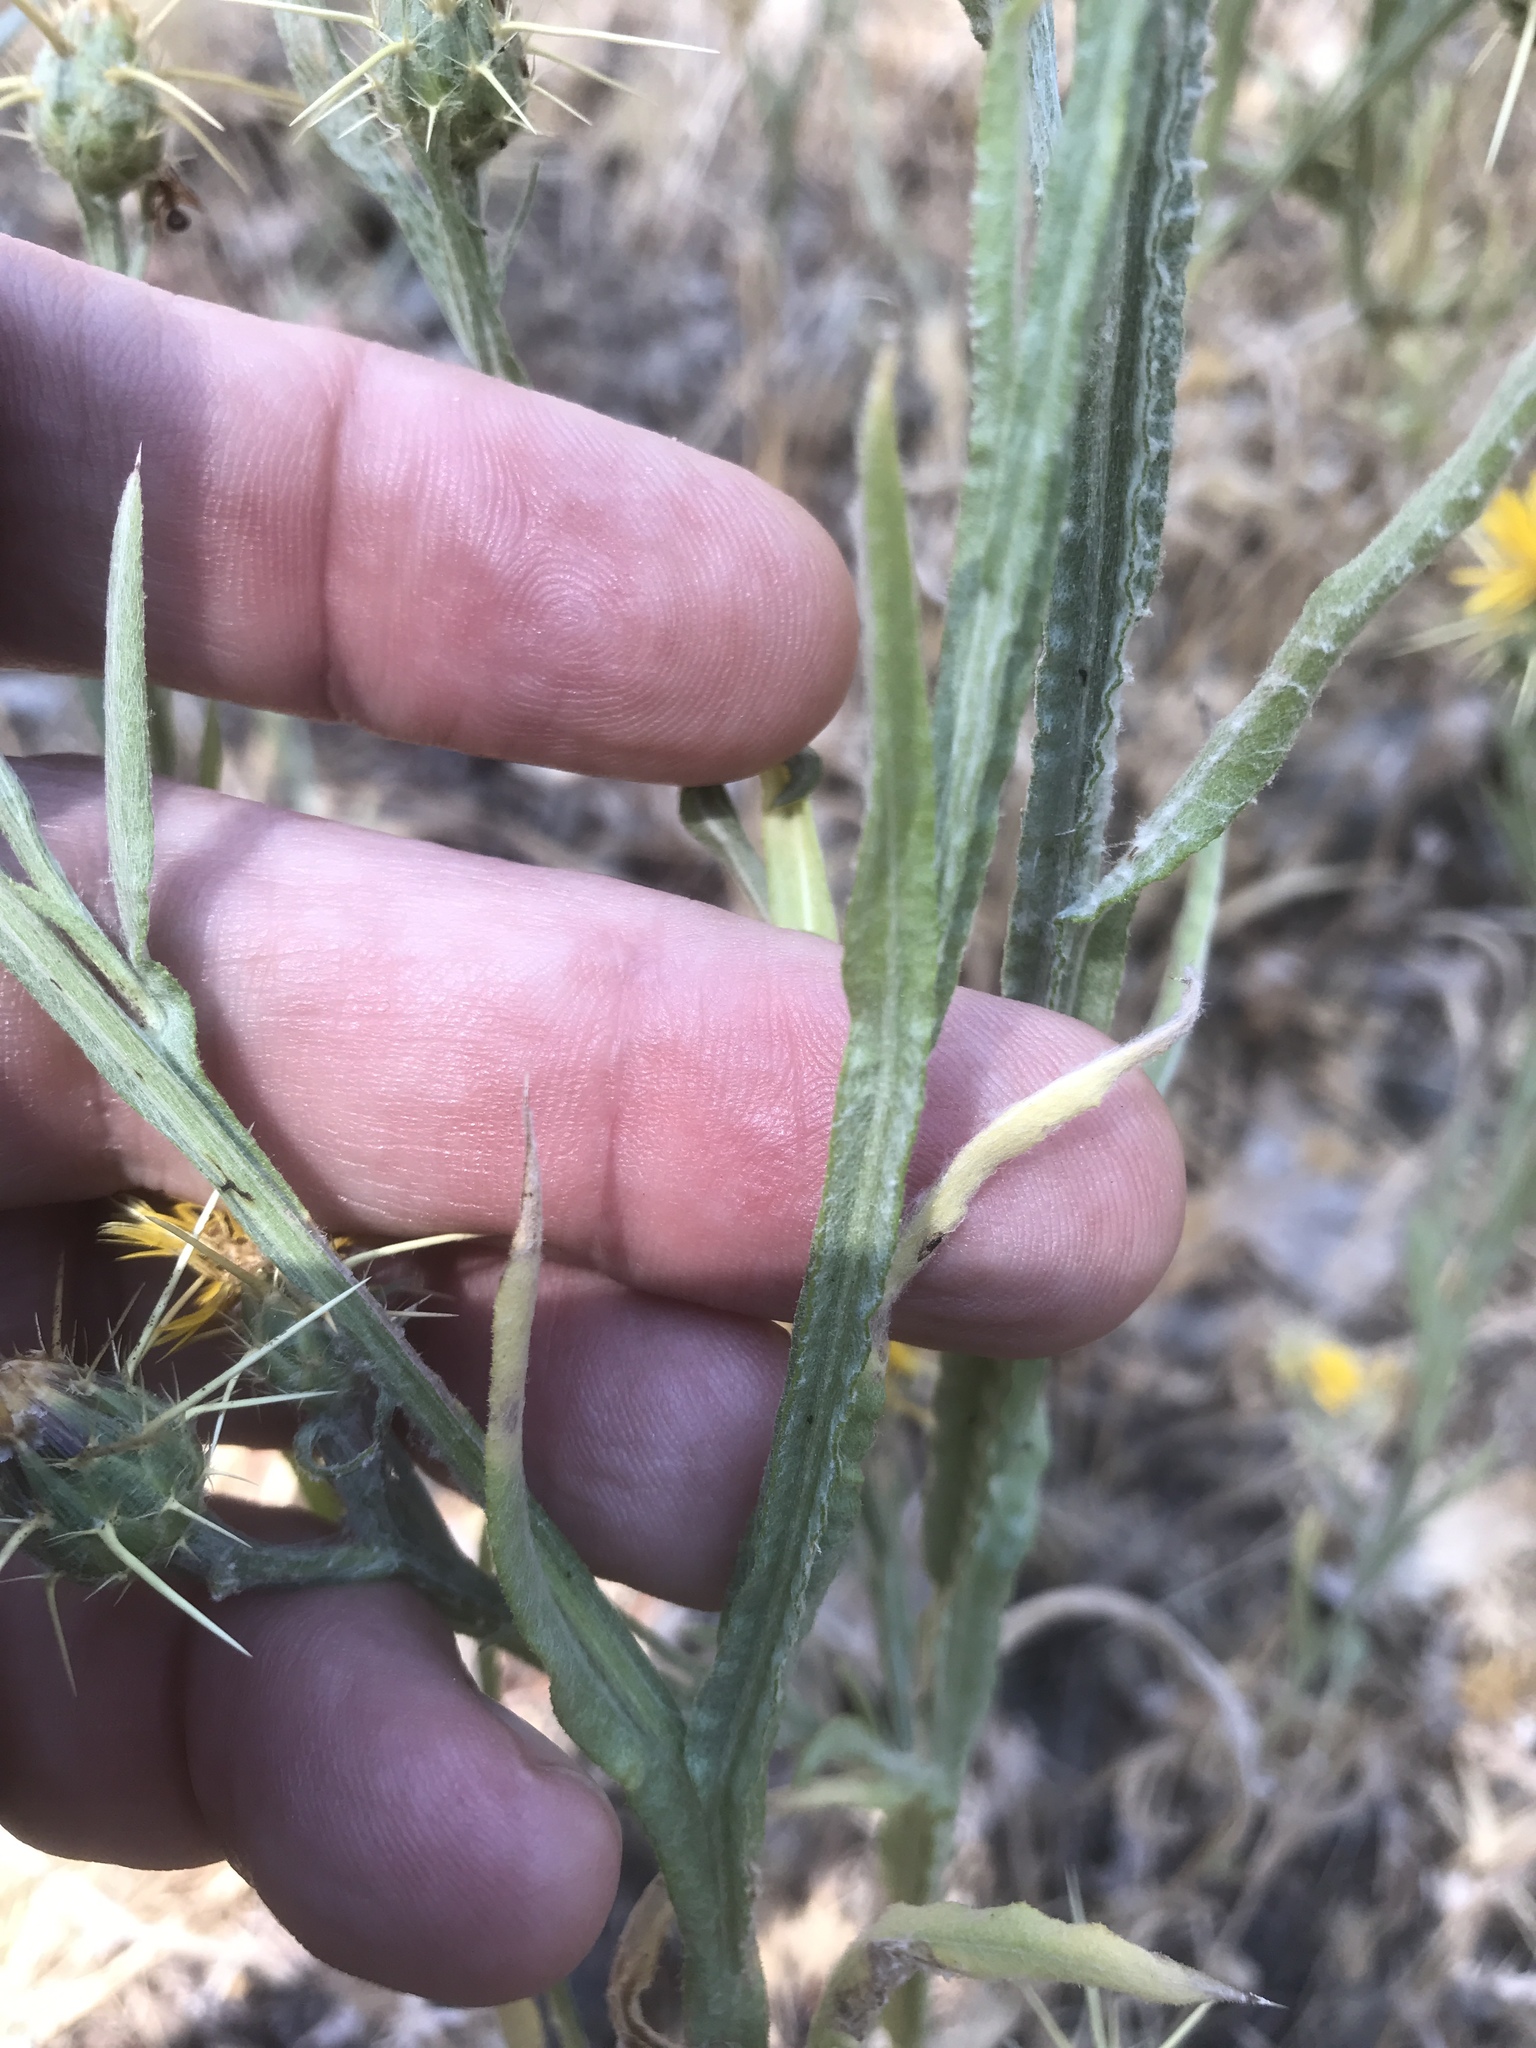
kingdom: Plantae
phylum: Tracheophyta
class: Magnoliopsida
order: Asterales
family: Asteraceae
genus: Centaurea
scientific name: Centaurea solstitialis
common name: Yellow star-thistle
